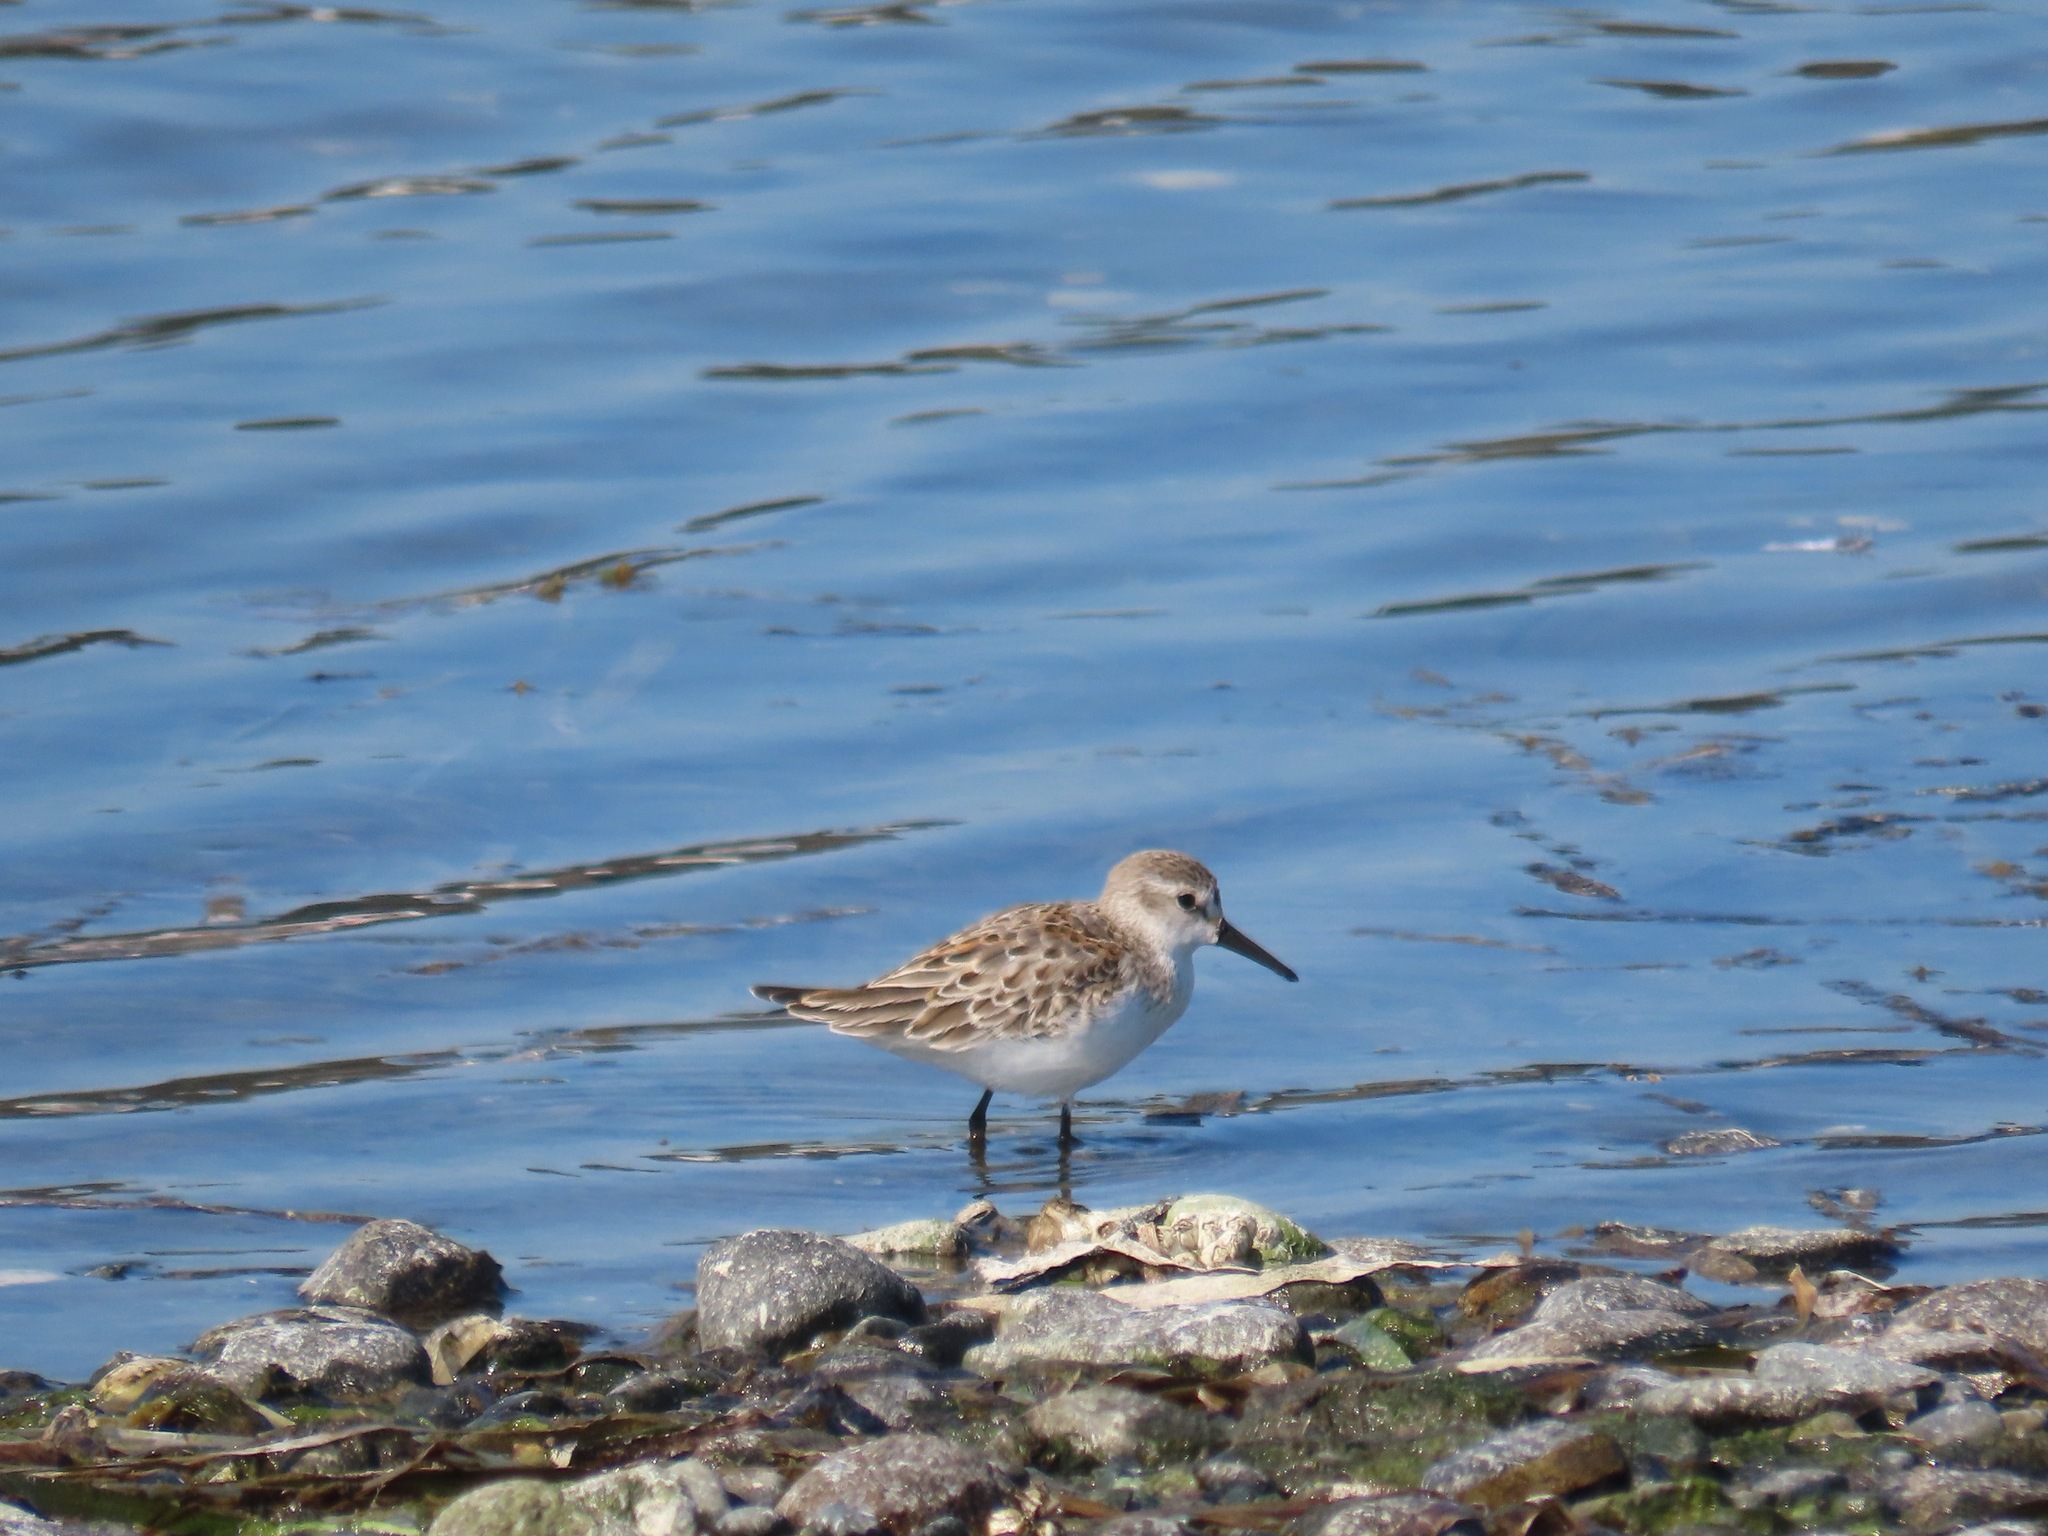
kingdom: Animalia
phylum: Chordata
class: Aves
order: Charadriiformes
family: Scolopacidae
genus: Calidris
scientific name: Calidris mauri
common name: Western sandpiper
